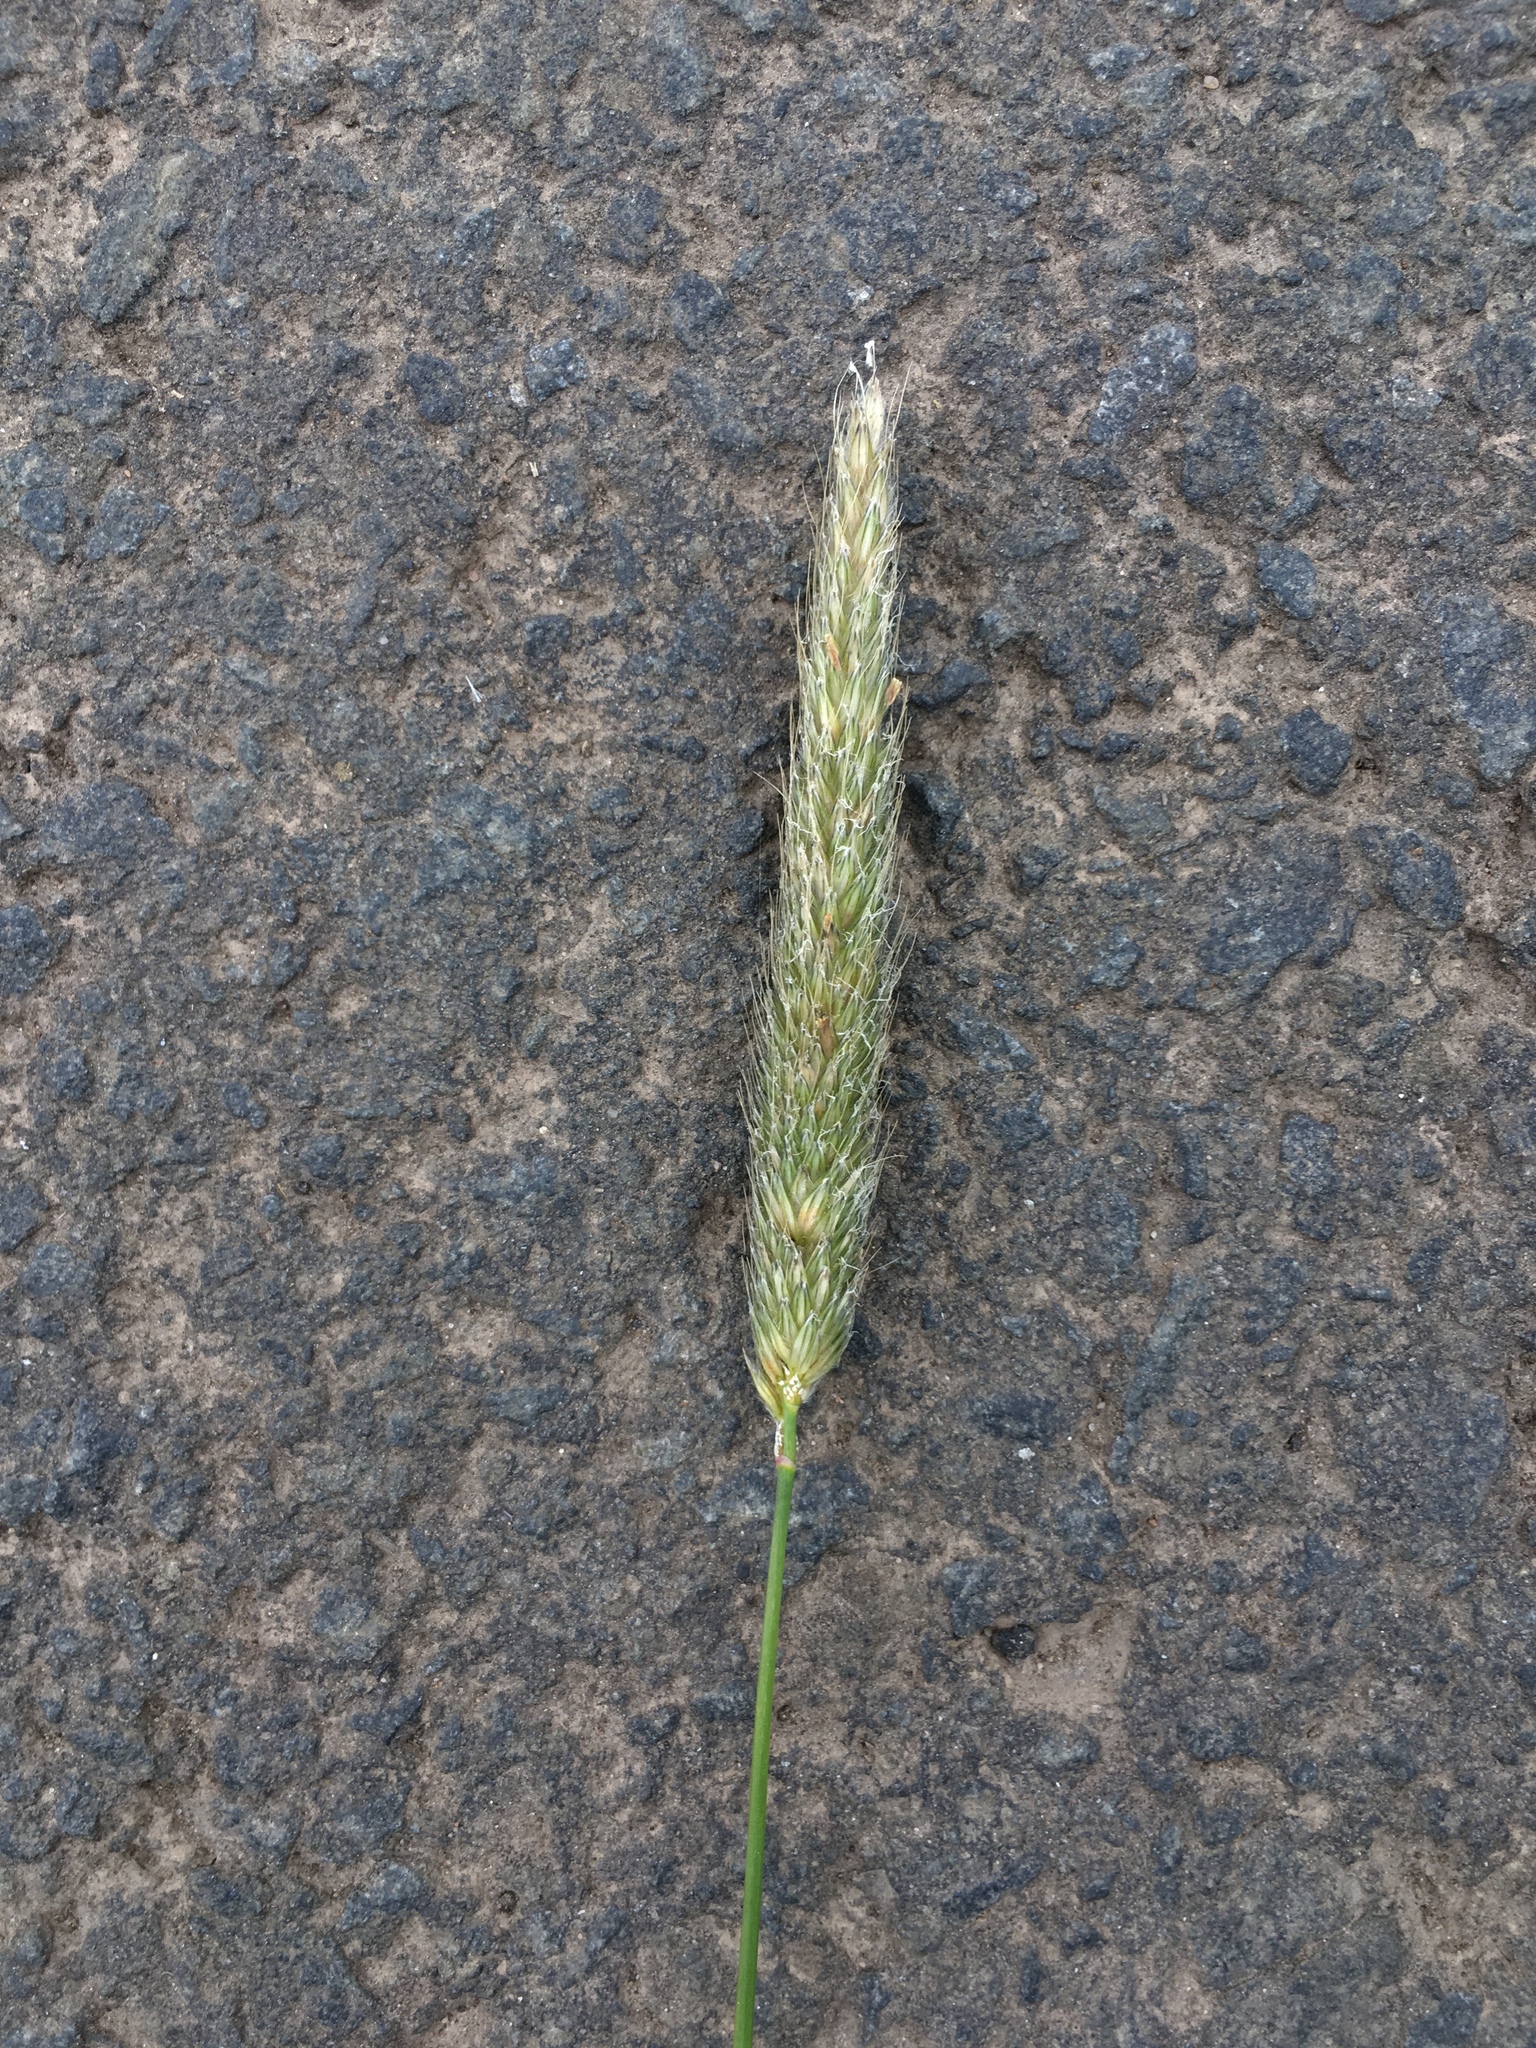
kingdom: Plantae
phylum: Tracheophyta
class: Liliopsida
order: Poales
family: Poaceae
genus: Alopecurus
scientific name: Alopecurus pratensis
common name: Meadow foxtail
